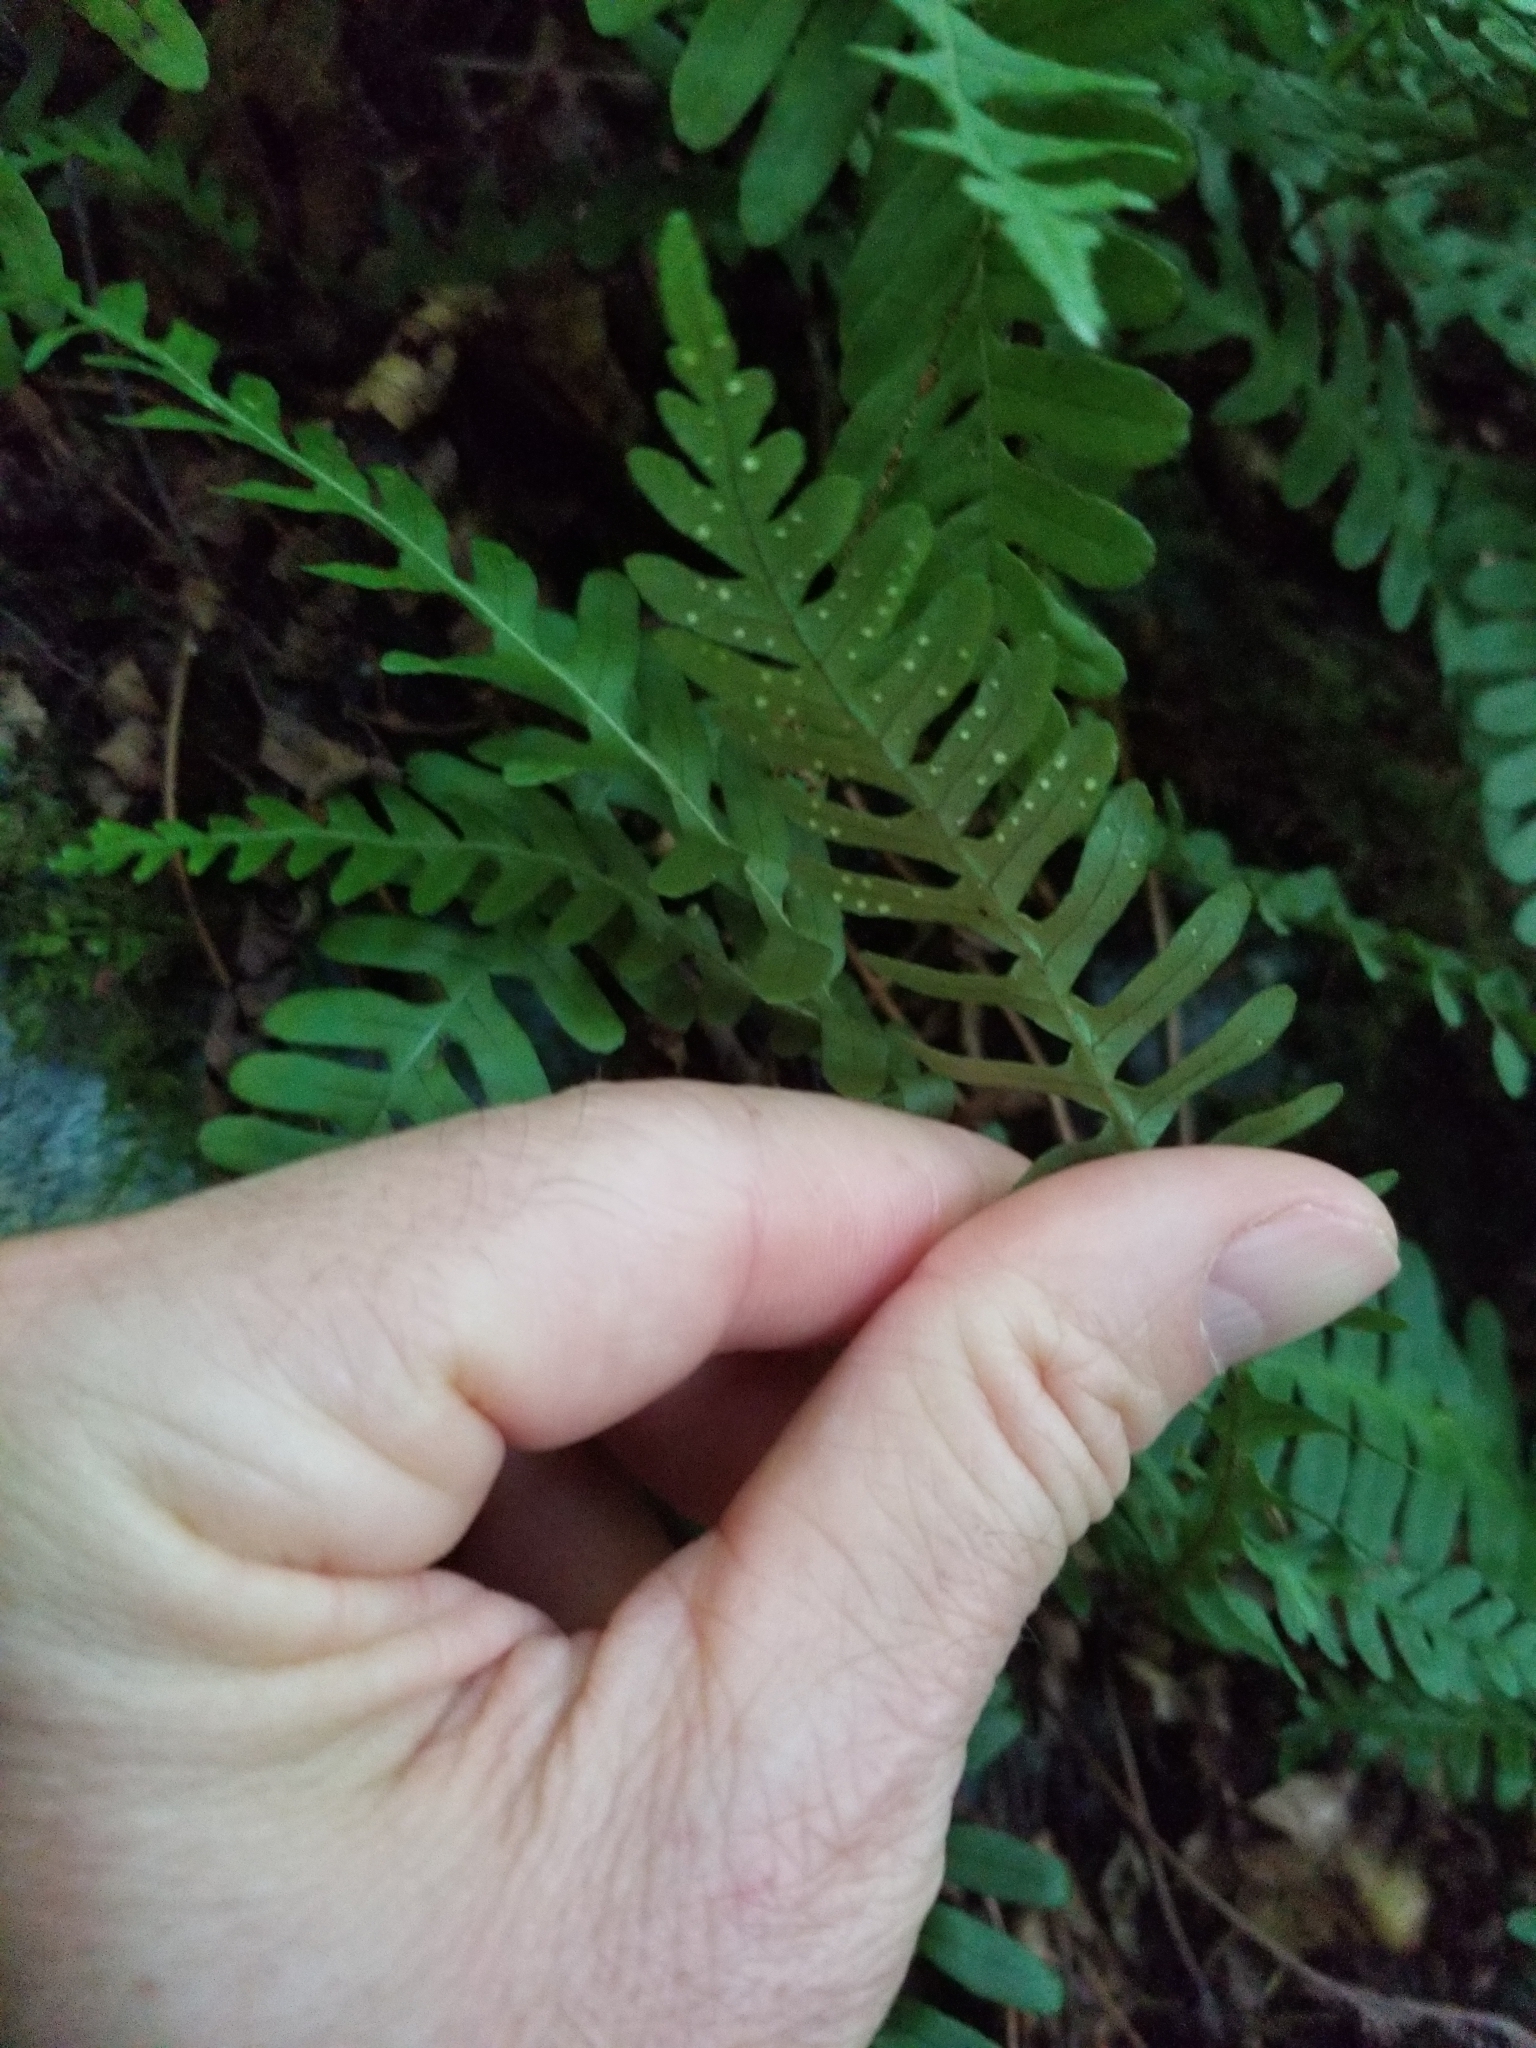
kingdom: Plantae
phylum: Tracheophyta
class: Polypodiopsida
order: Polypodiales
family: Polypodiaceae
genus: Polypodium
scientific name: Polypodium virginianum
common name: American wall fern
